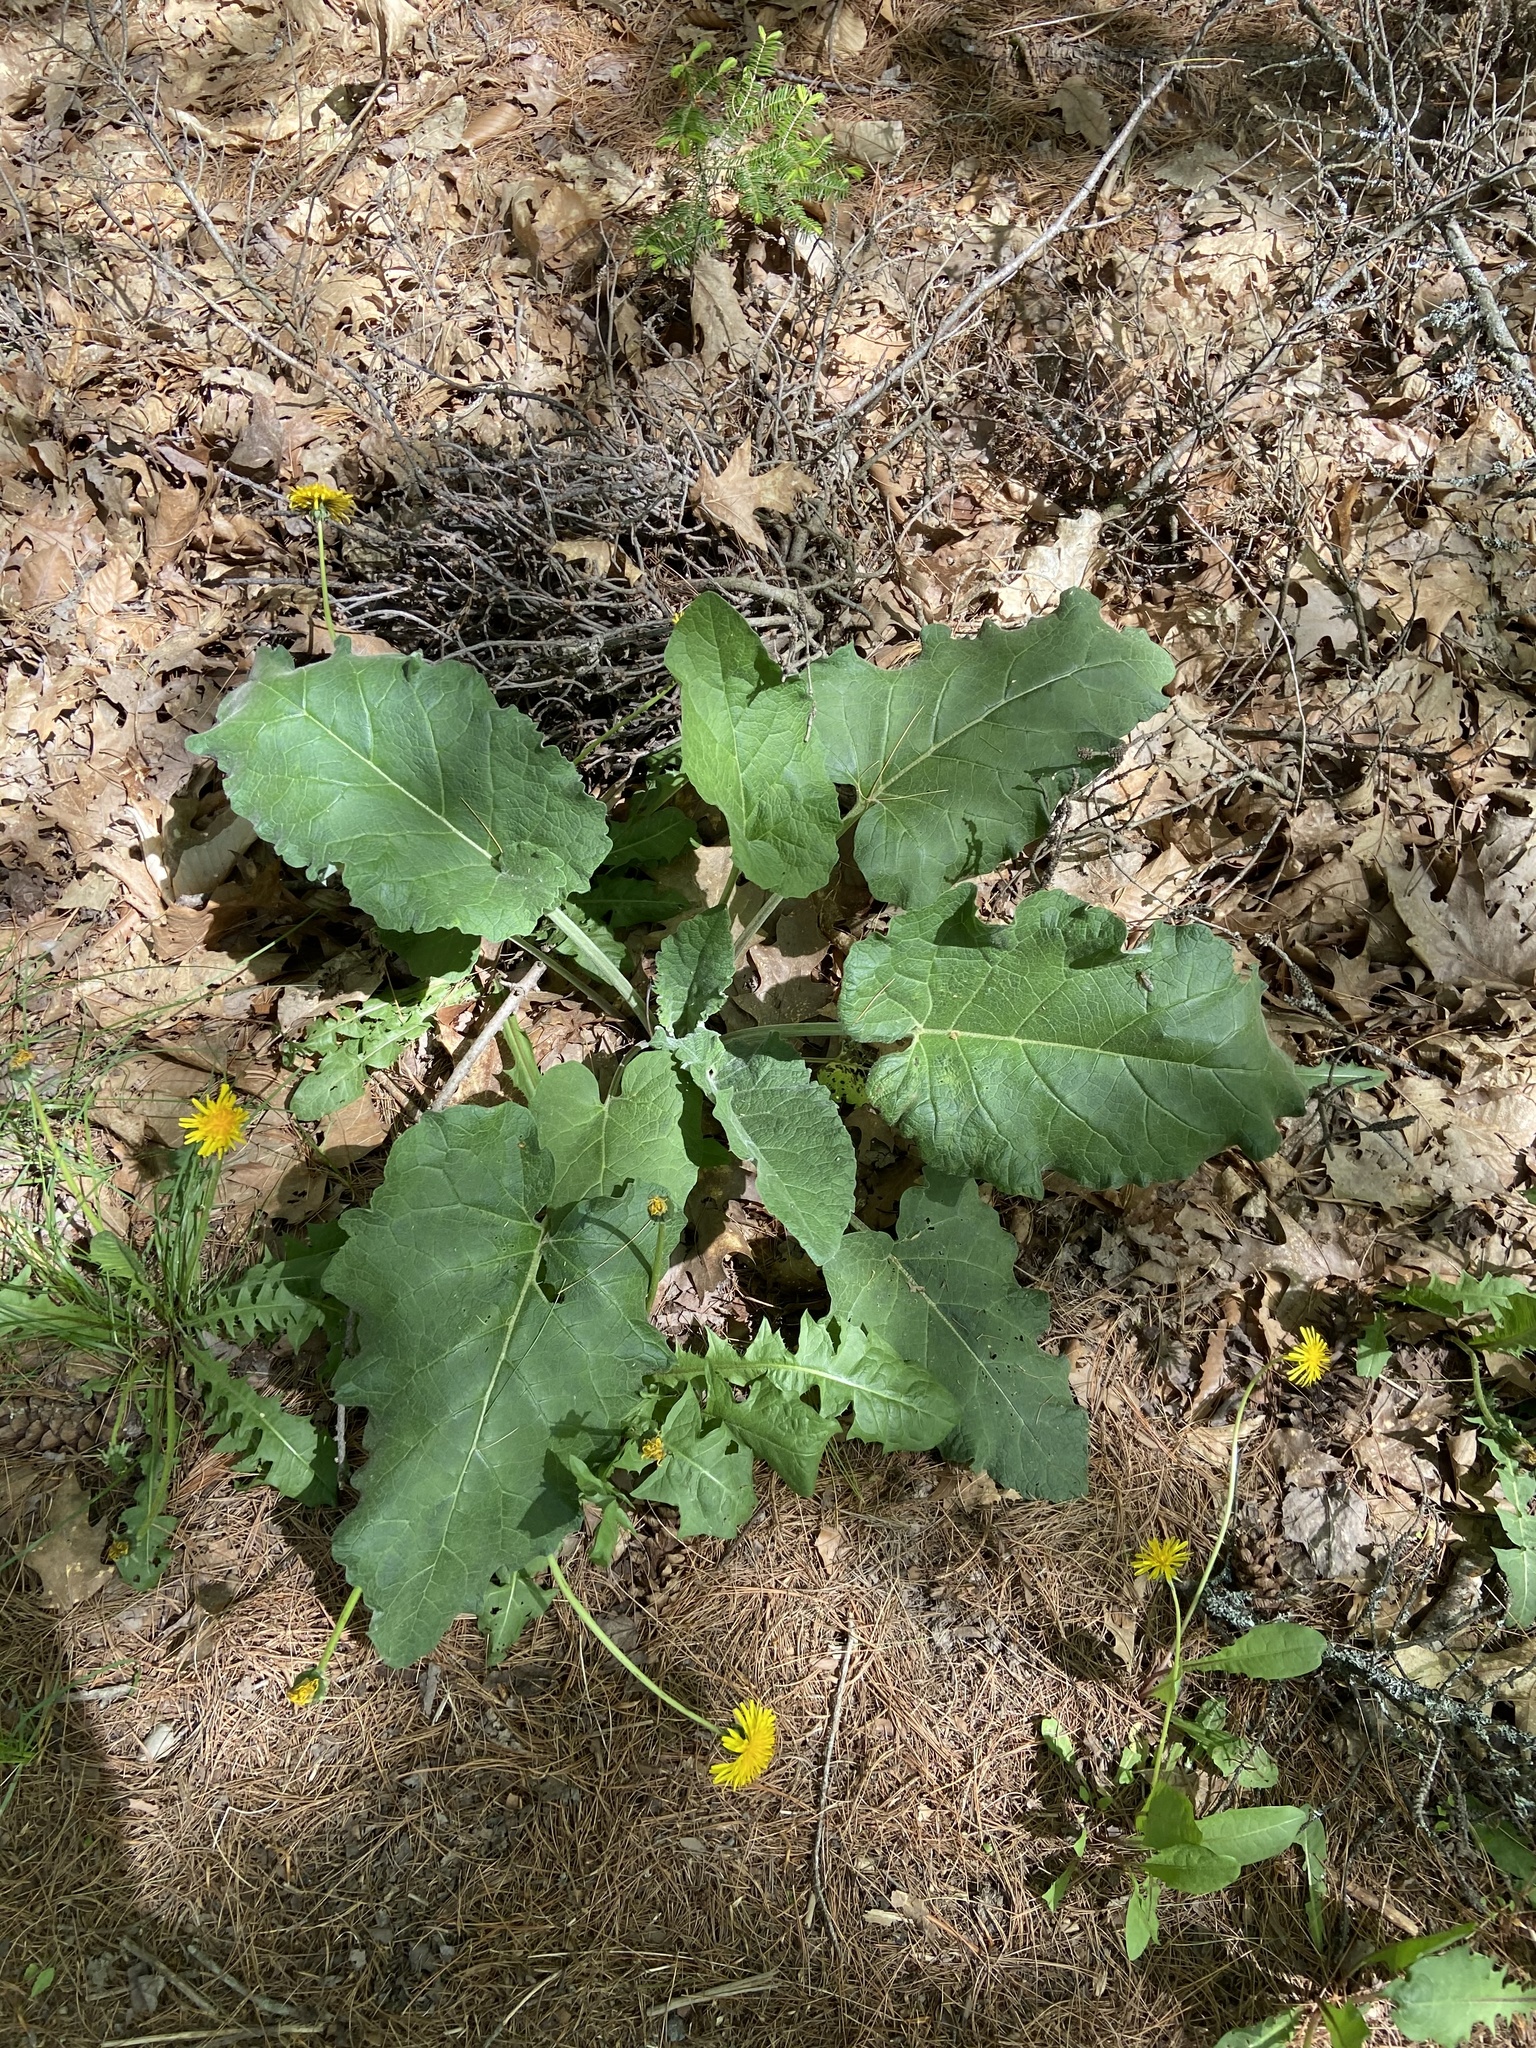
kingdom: Plantae
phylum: Tracheophyta
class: Magnoliopsida
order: Asterales
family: Asteraceae
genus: Arctium
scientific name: Arctium minus
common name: Lesser burdock
